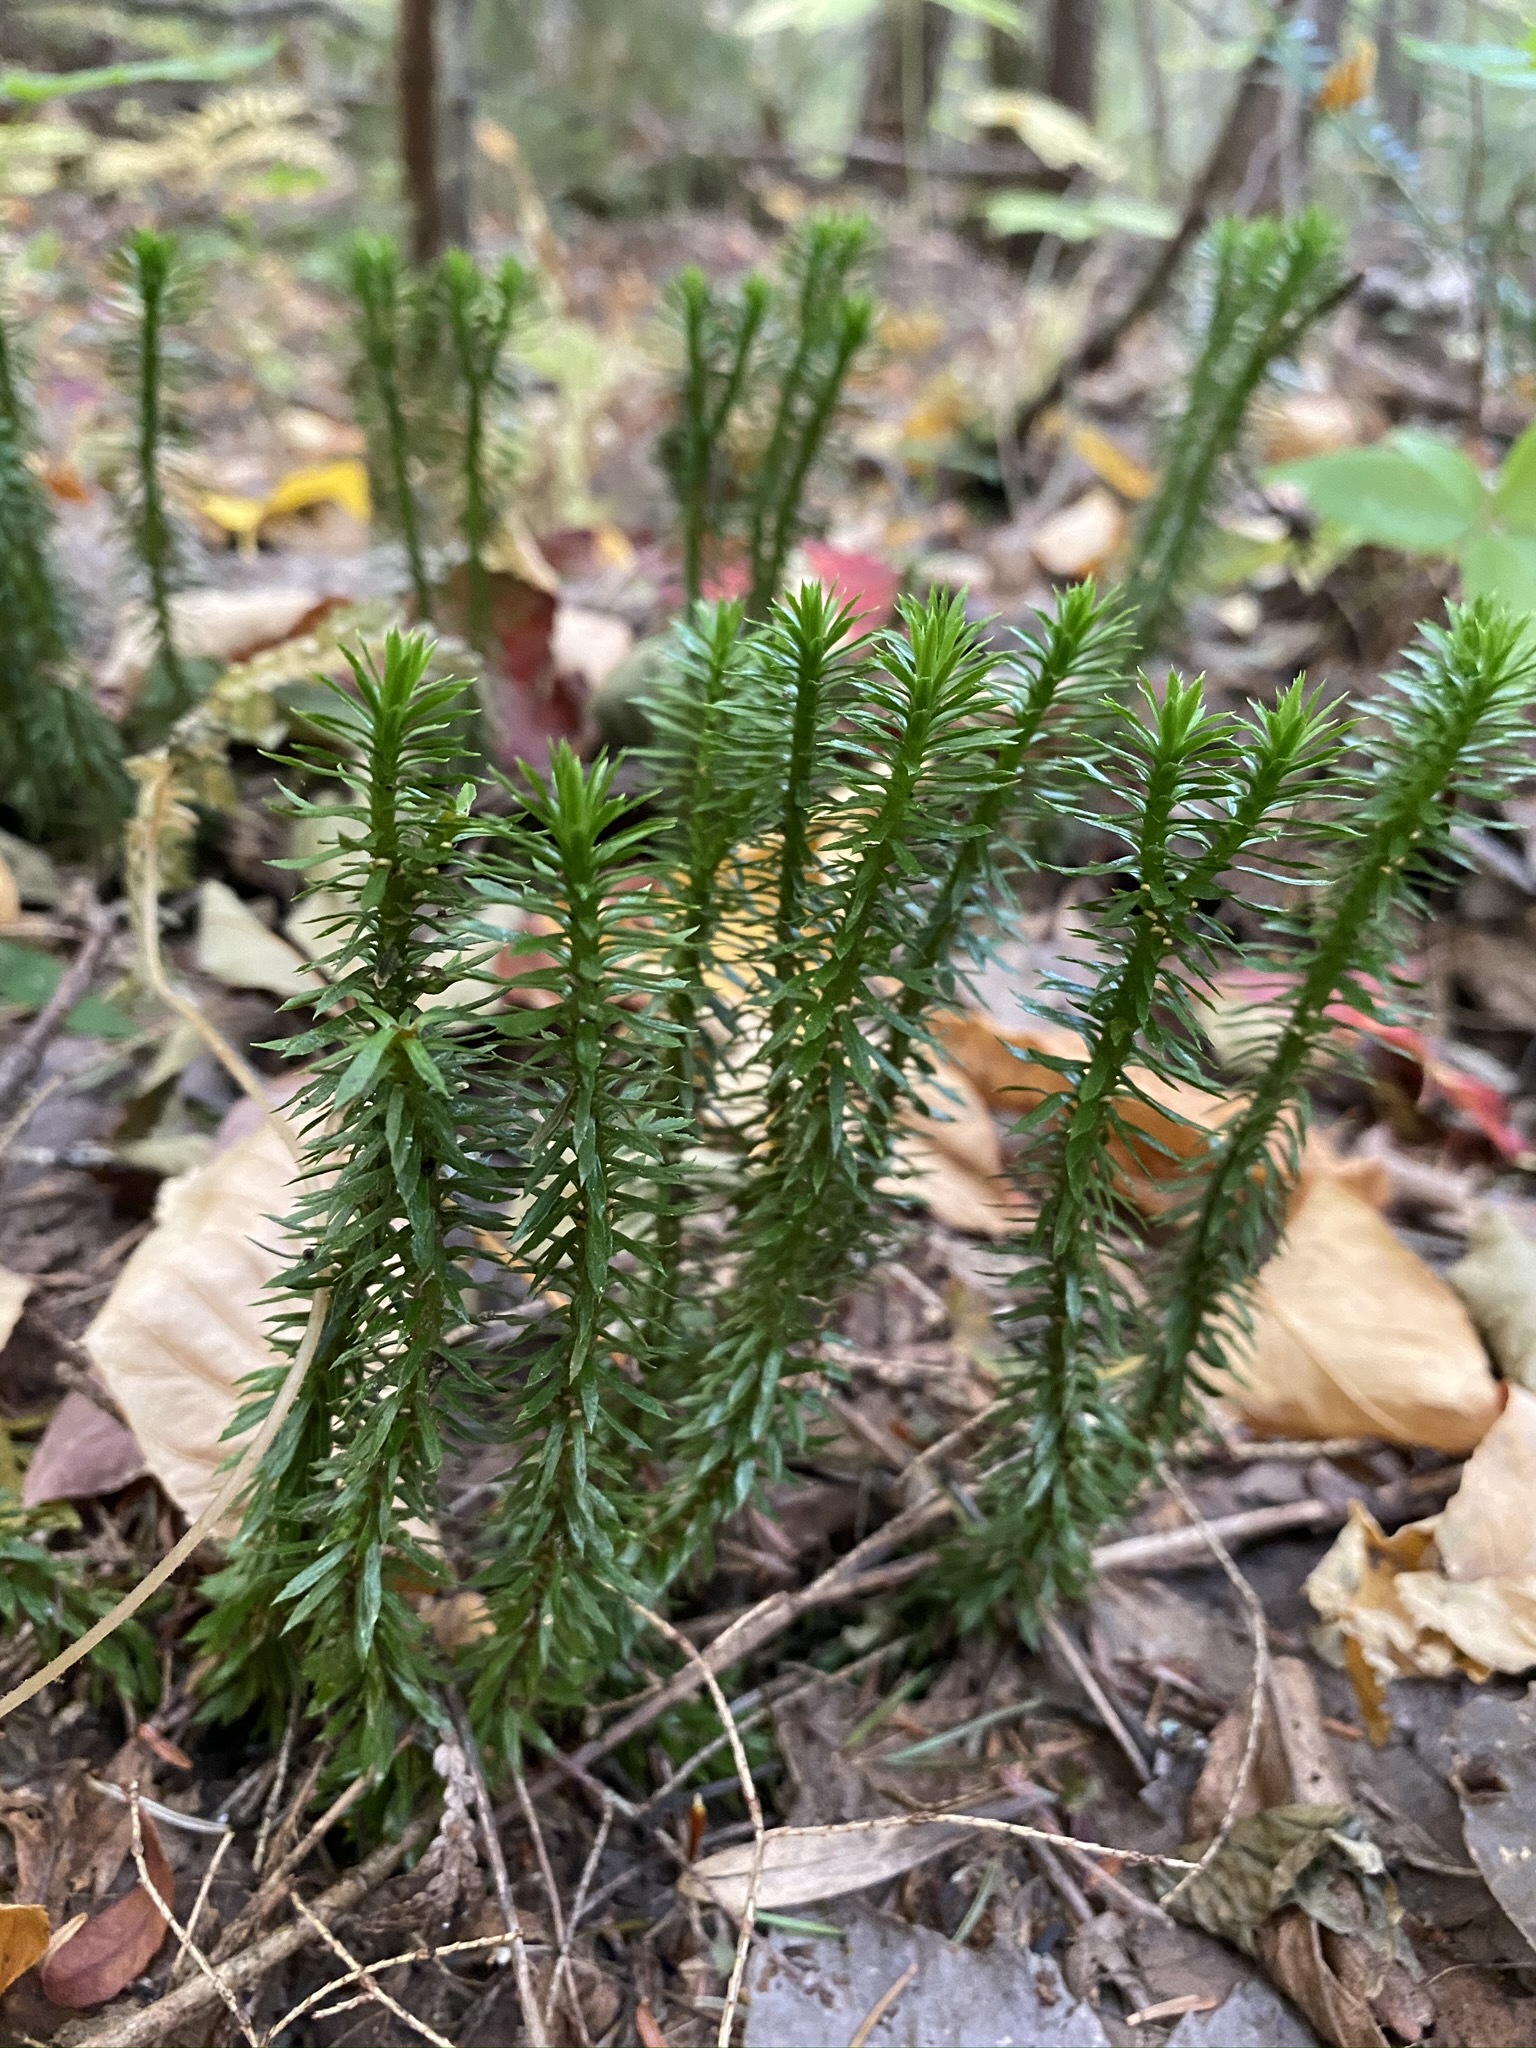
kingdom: Plantae
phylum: Tracheophyta
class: Lycopodiopsida
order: Lycopodiales
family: Lycopodiaceae
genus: Huperzia
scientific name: Huperzia lucidula
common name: Shining clubmoss
